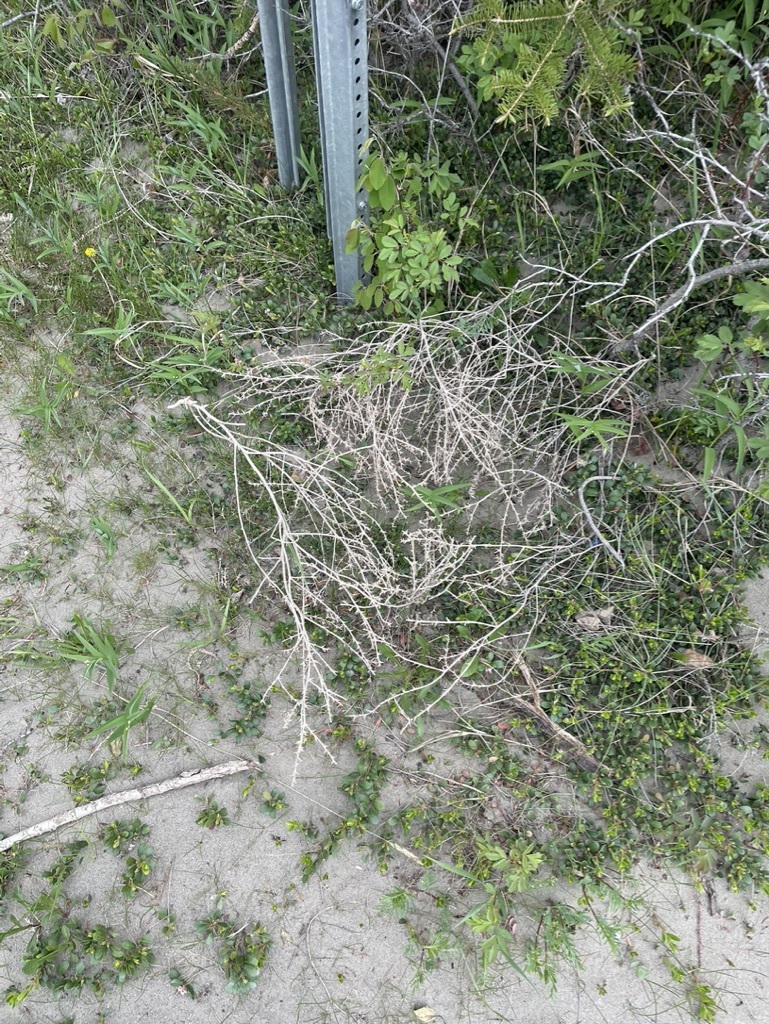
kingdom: Plantae
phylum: Tracheophyta
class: Magnoliopsida
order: Caryophyllales
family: Amaranthaceae
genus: Salsola
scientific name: Salsola tragus
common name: Prickly russian thistle
